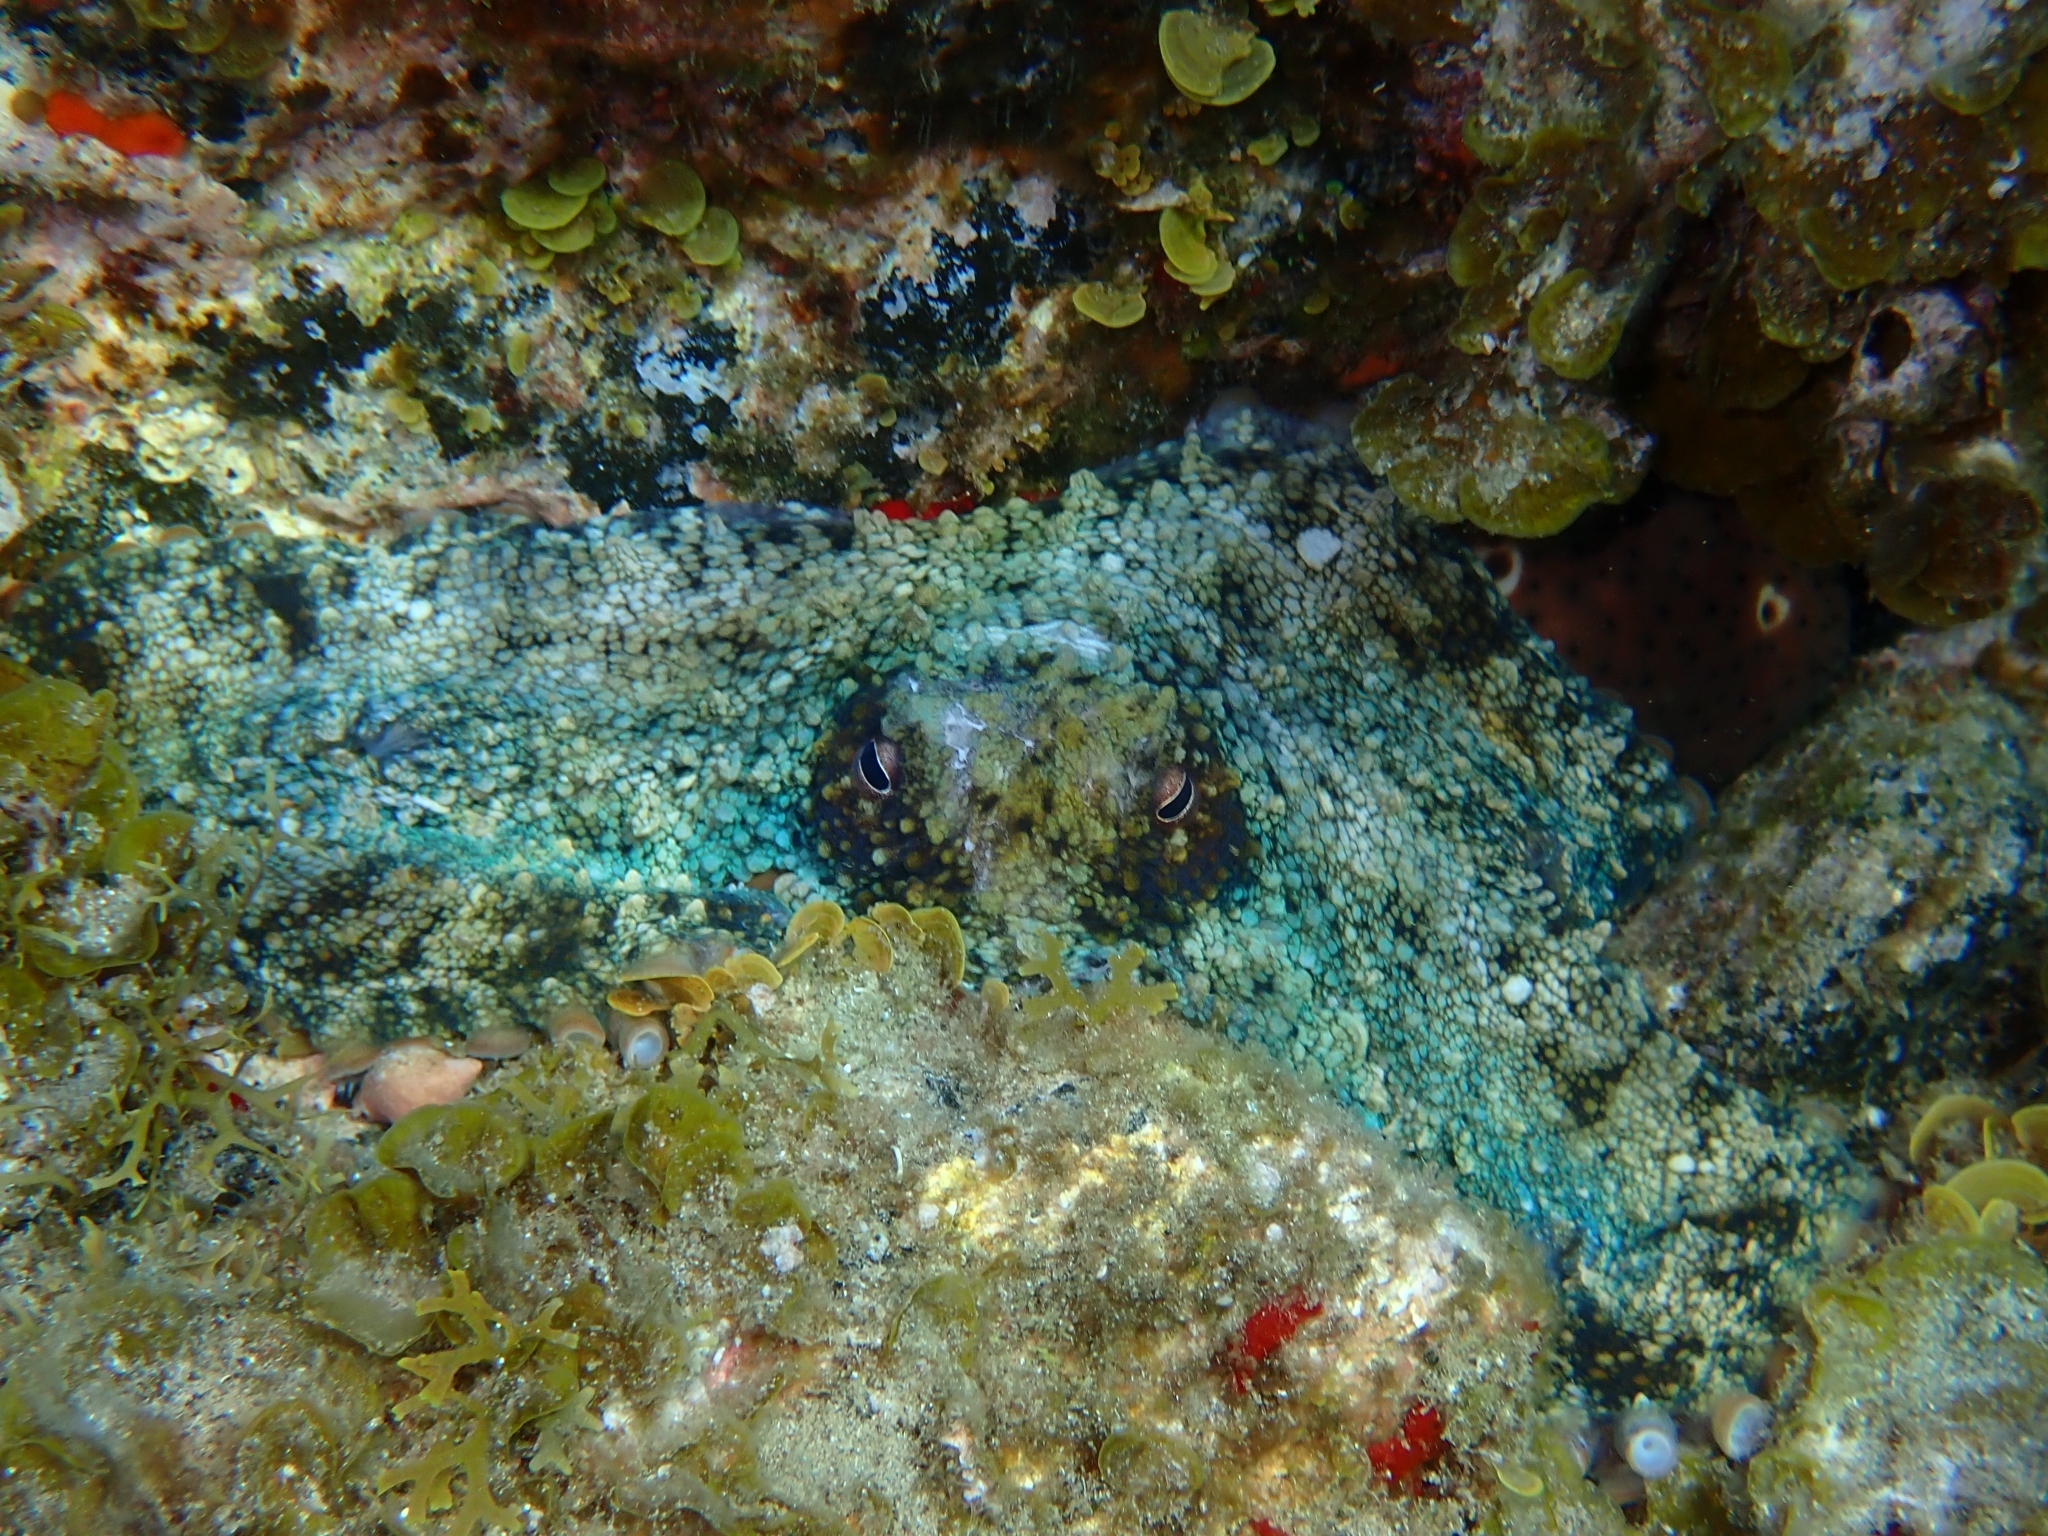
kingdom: Animalia
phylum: Mollusca
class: Cephalopoda
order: Octopoda
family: Octopodidae
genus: Octopus
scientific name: Octopus vulgaris
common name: Common octopus
